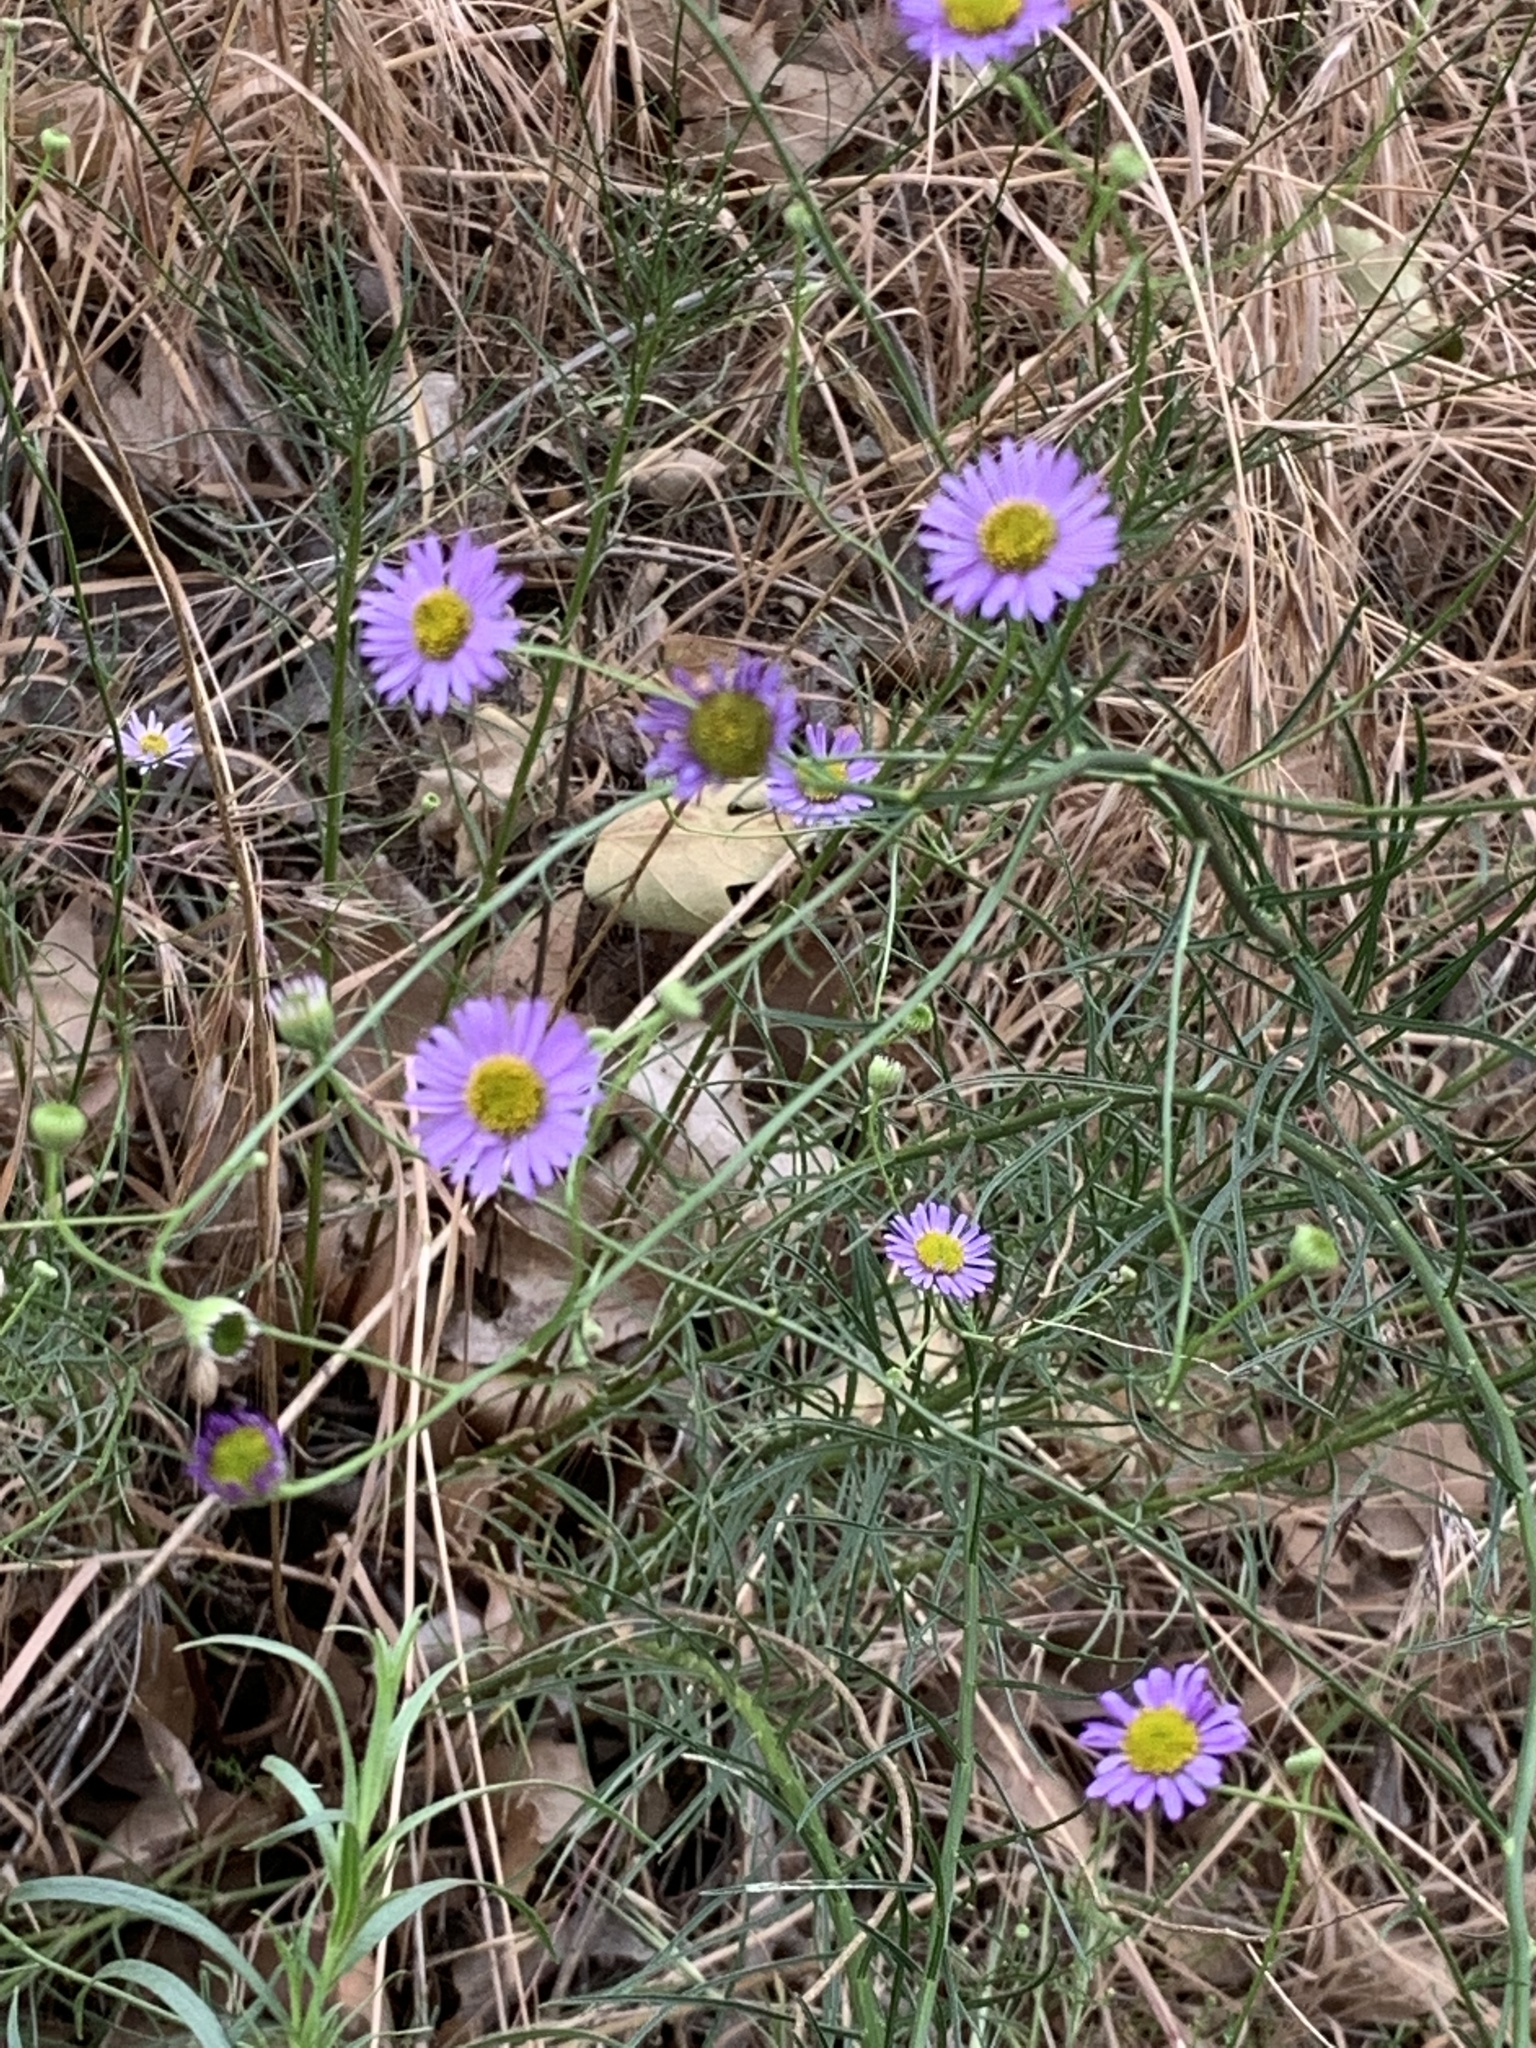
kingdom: Plantae
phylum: Tracheophyta
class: Magnoliopsida
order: Asterales
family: Asteraceae
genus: Erigeron
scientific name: Erigeron foliosus
